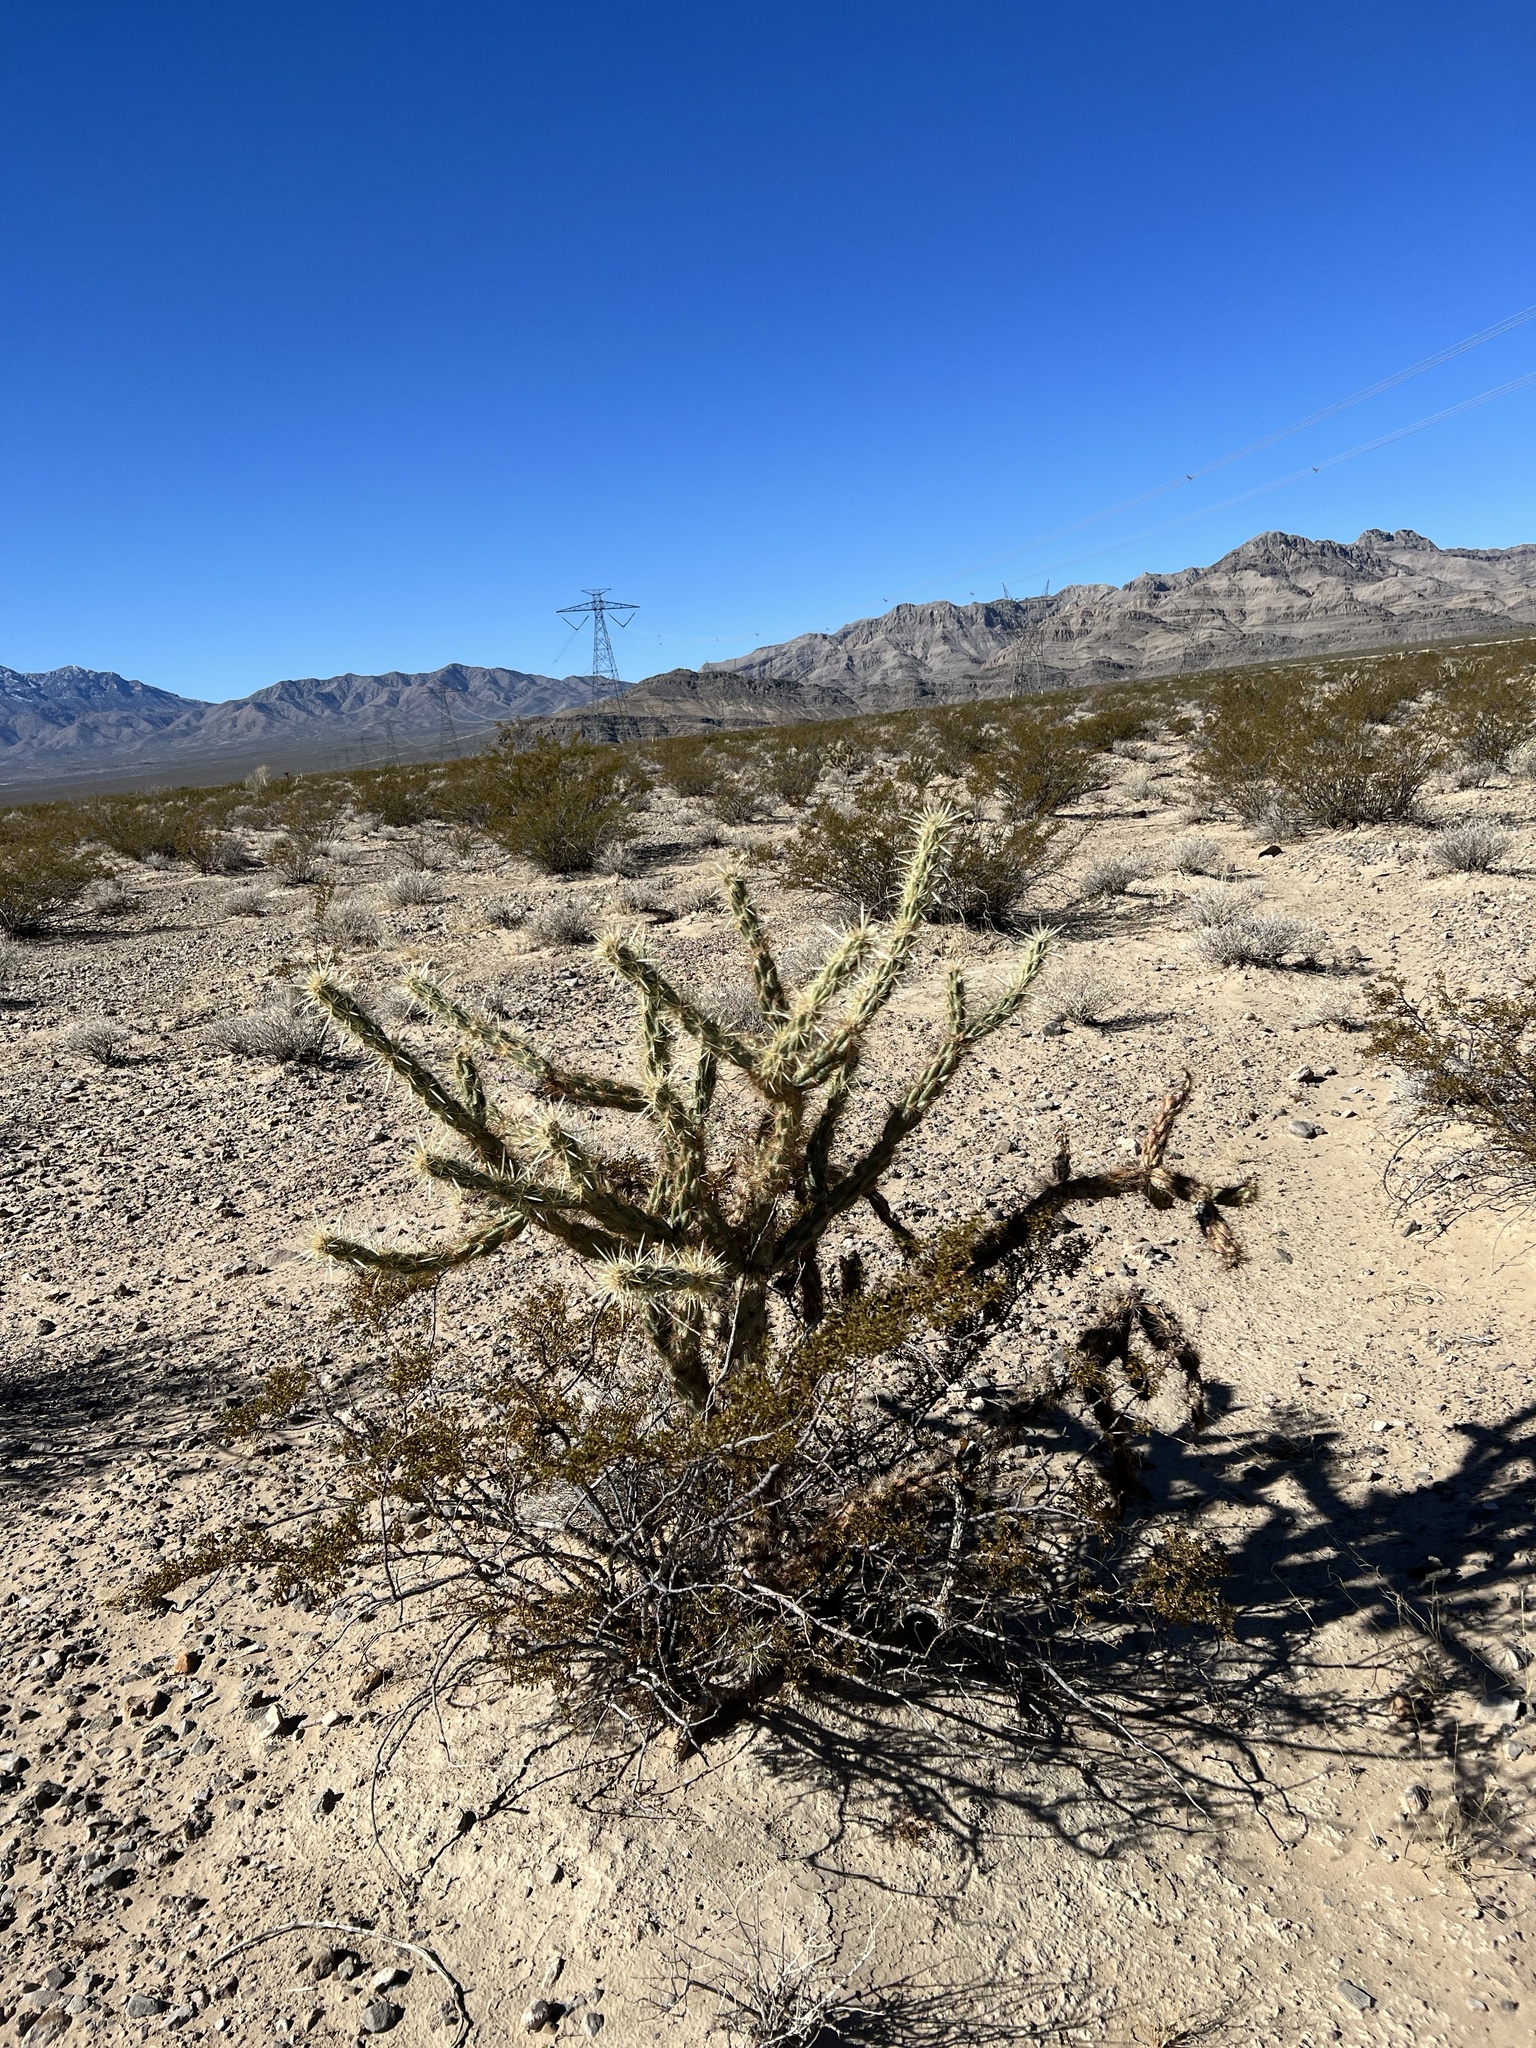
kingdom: Plantae
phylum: Tracheophyta
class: Magnoliopsida
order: Caryophyllales
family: Cactaceae
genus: Cylindropuntia
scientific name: Cylindropuntia acanthocarpa
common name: Buckhorn cholla
